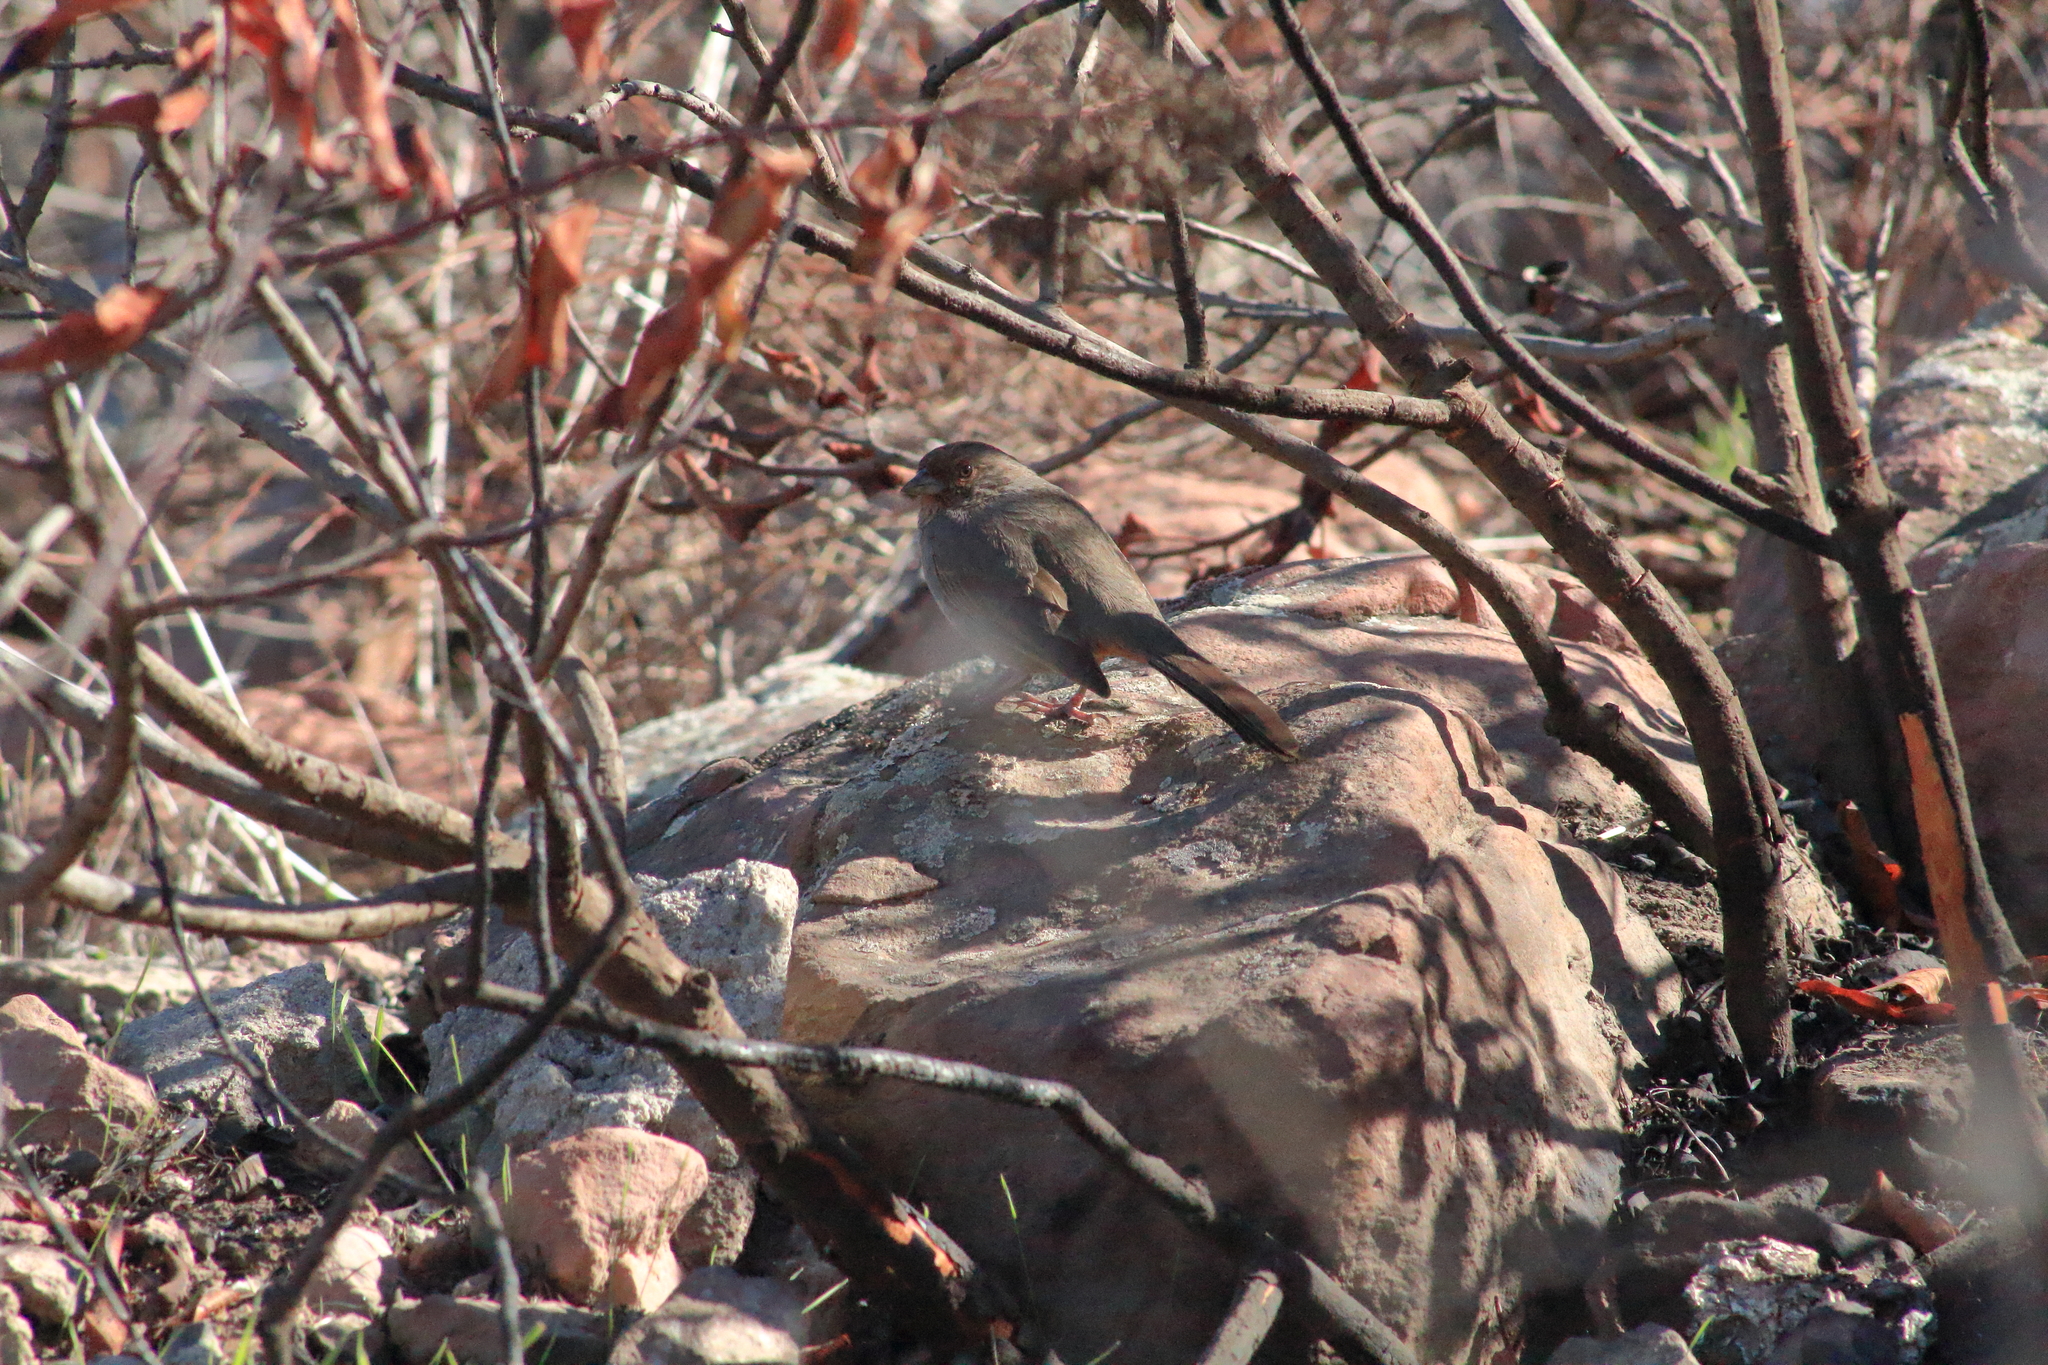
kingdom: Animalia
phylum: Chordata
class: Aves
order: Passeriformes
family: Passerellidae
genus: Melozone
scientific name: Melozone crissalis
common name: California towhee
